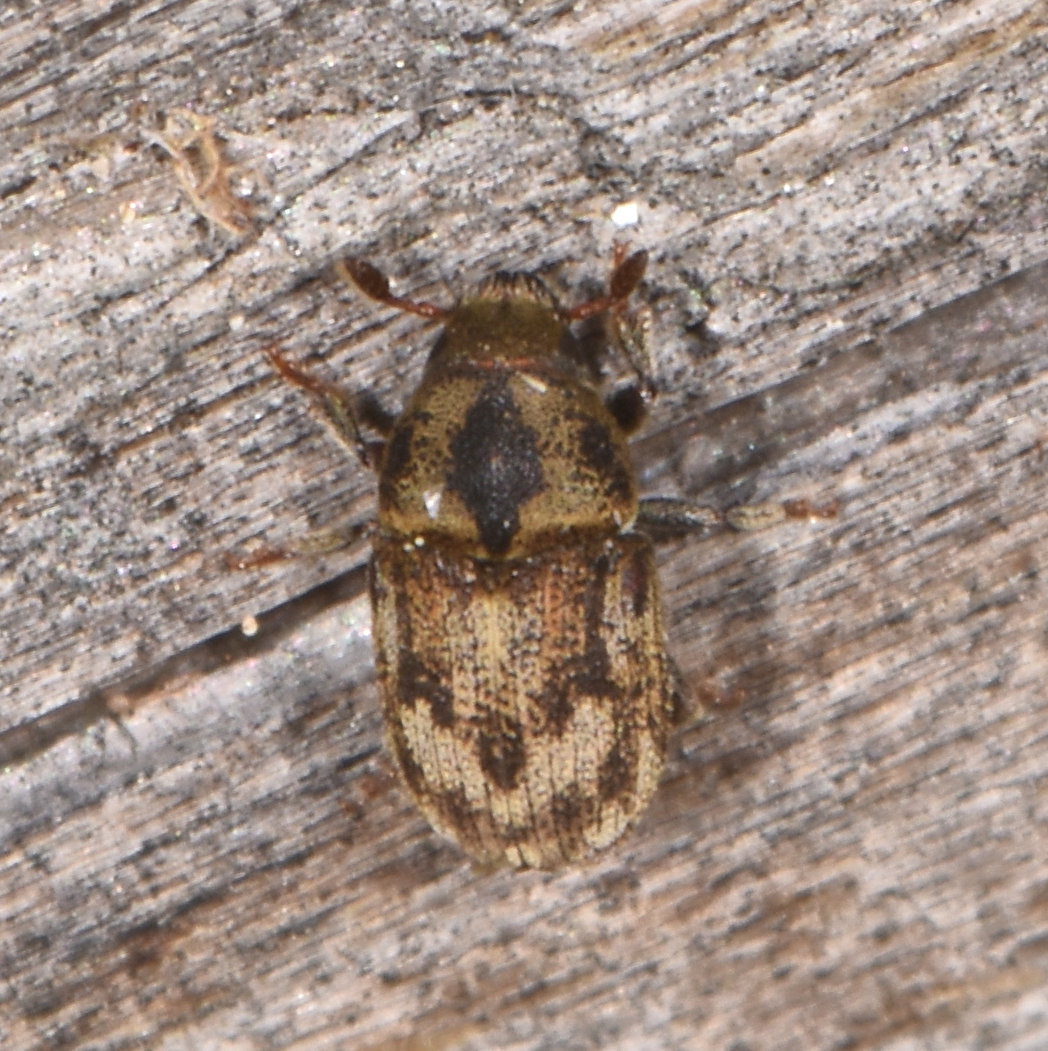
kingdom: Animalia
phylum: Arthropoda
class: Insecta
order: Coleoptera
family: Curculionidae
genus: Hylesinus
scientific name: Hylesinus aculeatus
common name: Easter-ash bark beetle
